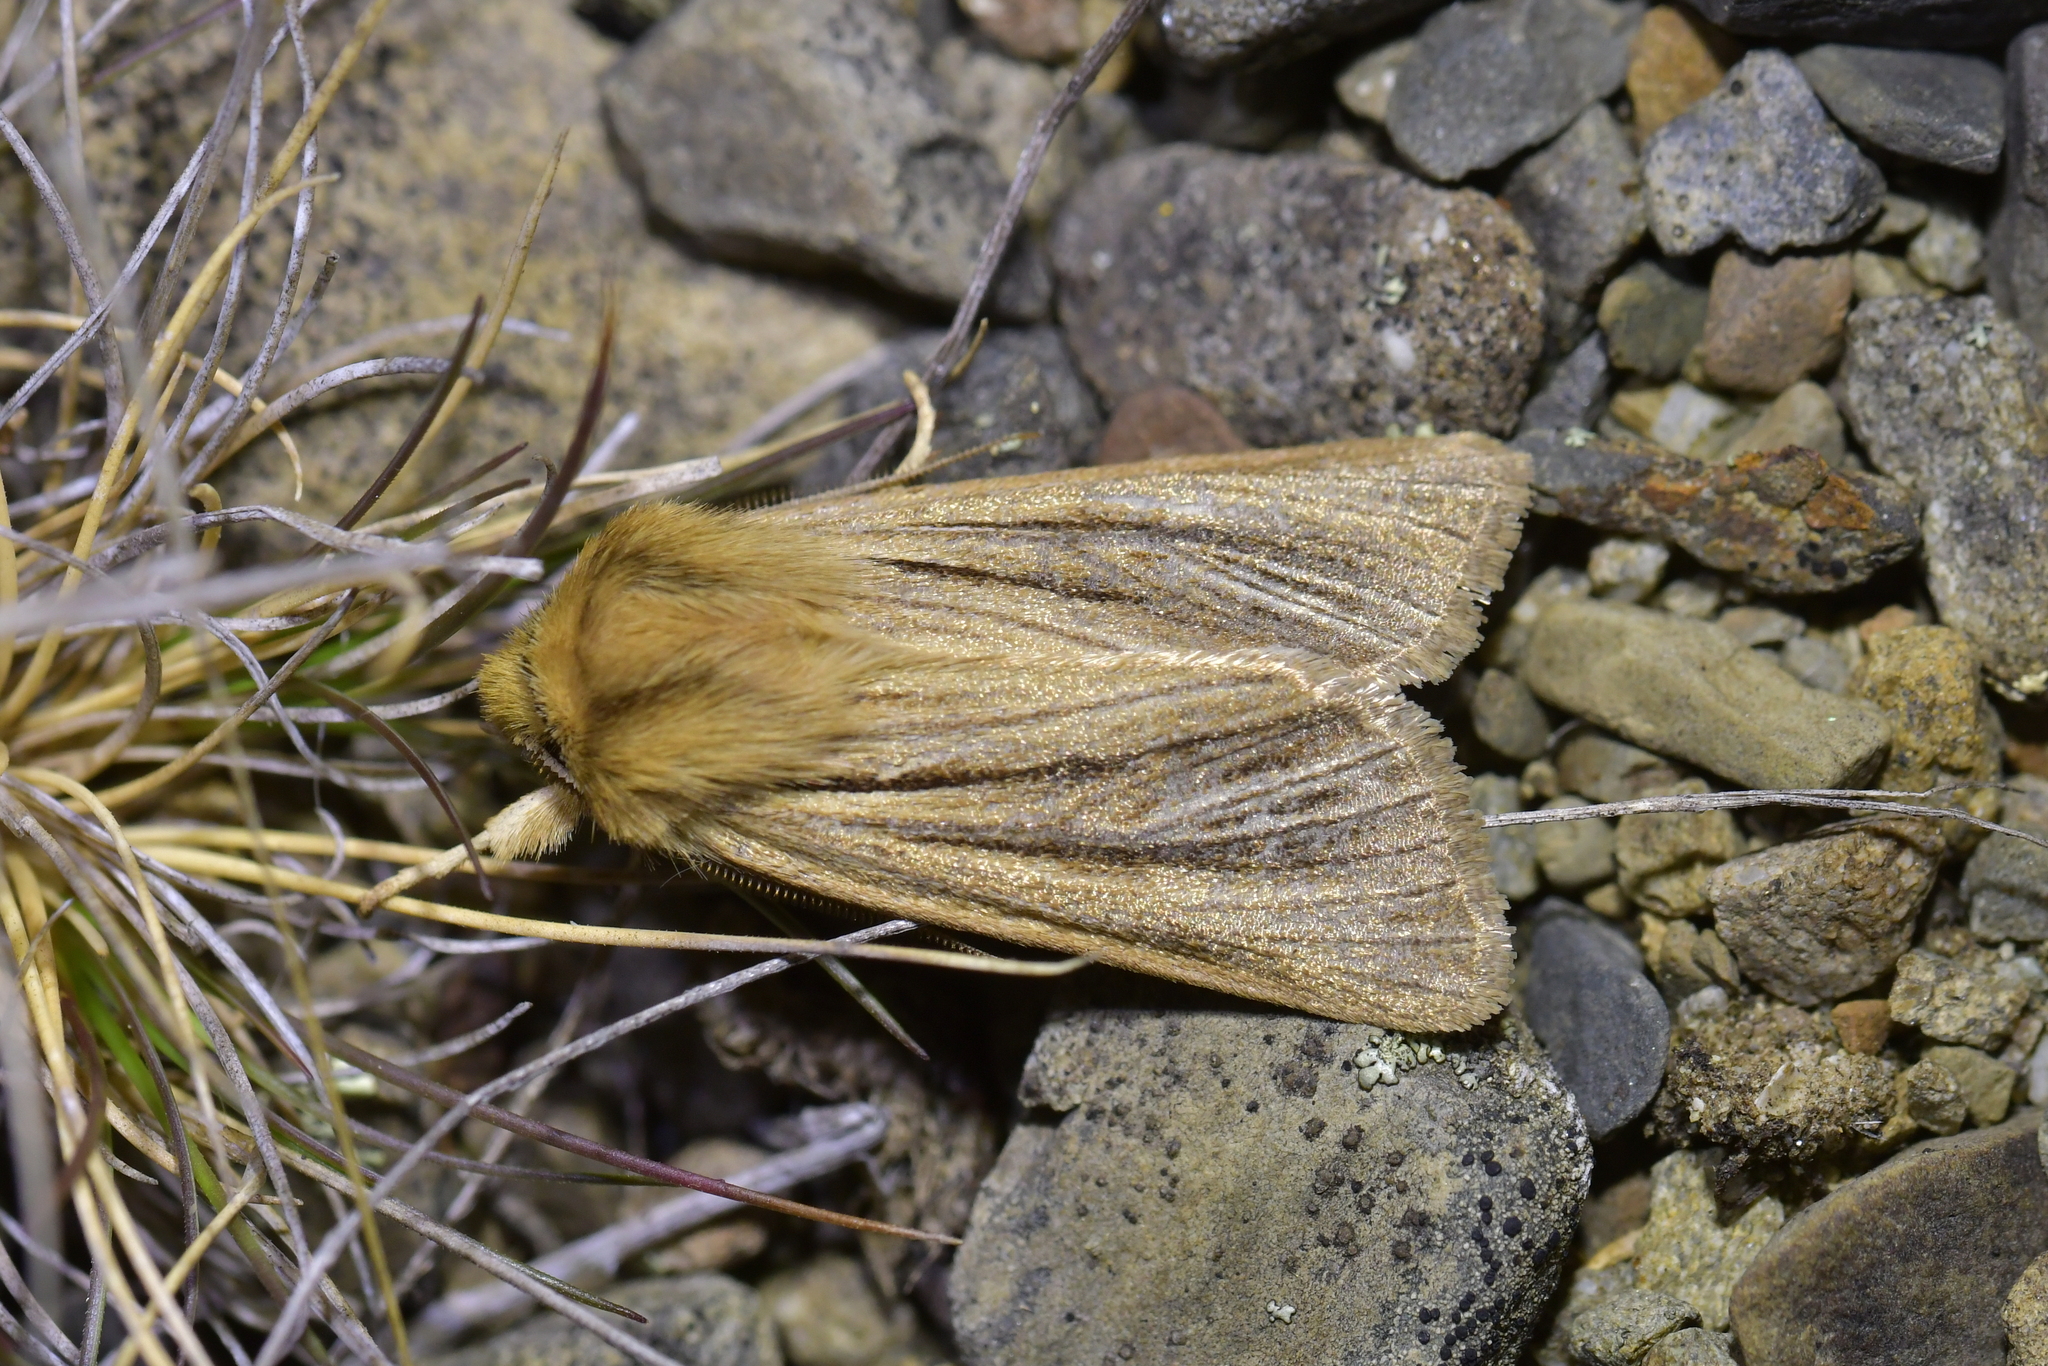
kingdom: Animalia
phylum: Arthropoda
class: Insecta
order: Lepidoptera
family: Noctuidae
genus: Ichneutica
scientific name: Ichneutica
